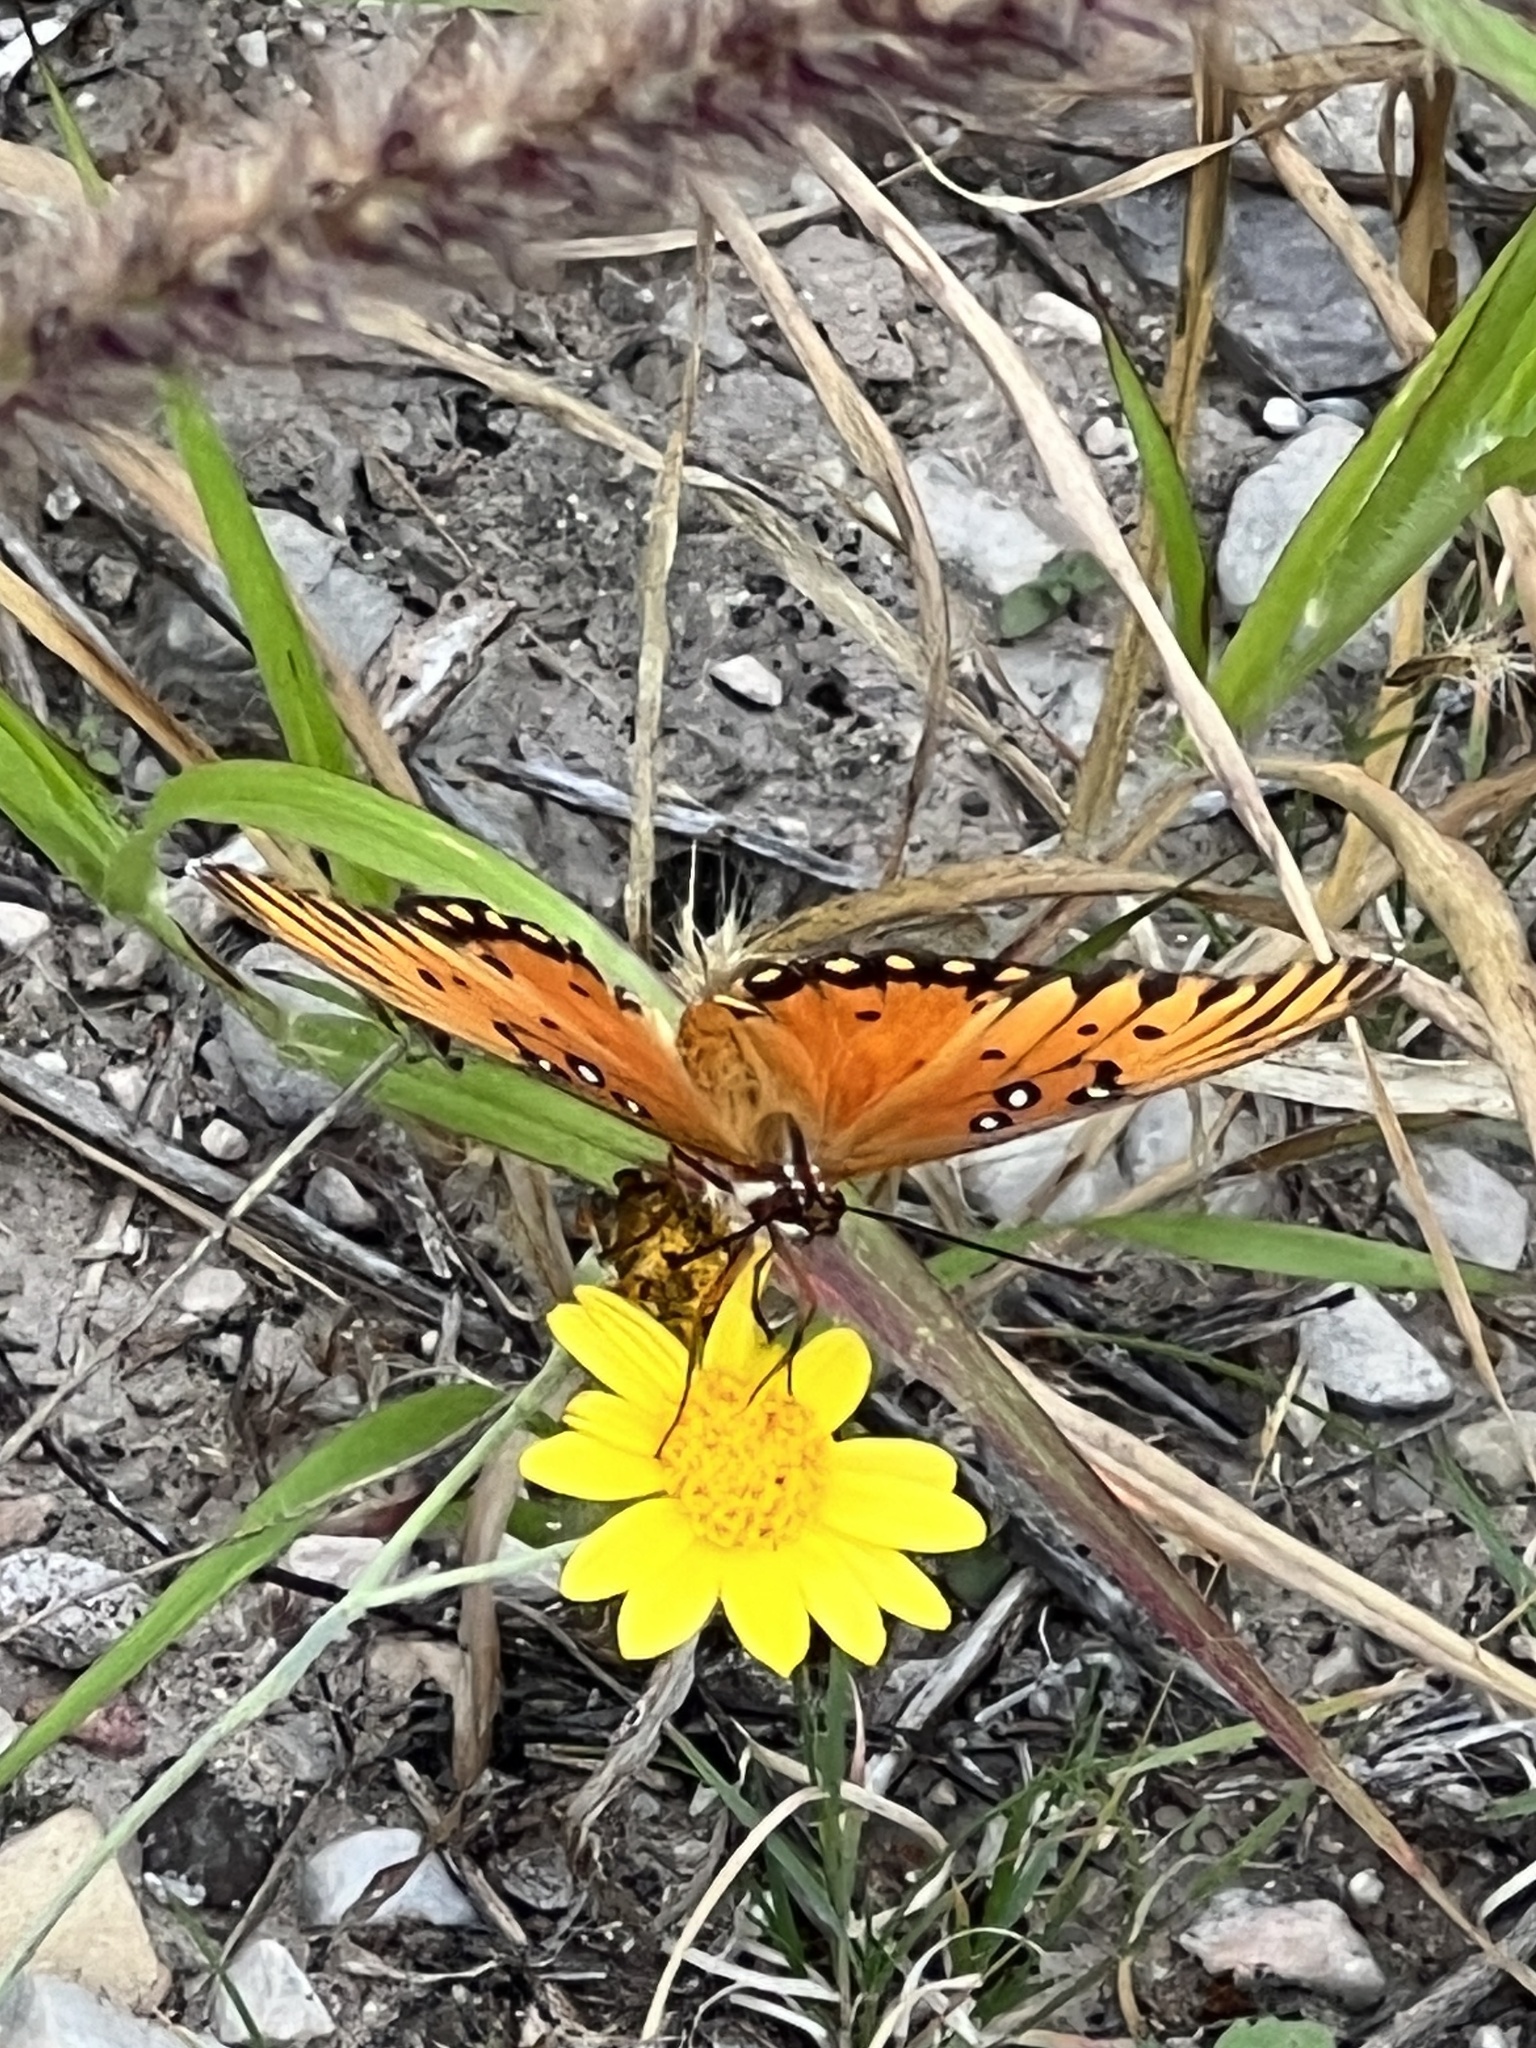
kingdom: Animalia
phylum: Arthropoda
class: Insecta
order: Lepidoptera
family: Nymphalidae
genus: Dione
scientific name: Dione vanillae
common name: Gulf fritillary
